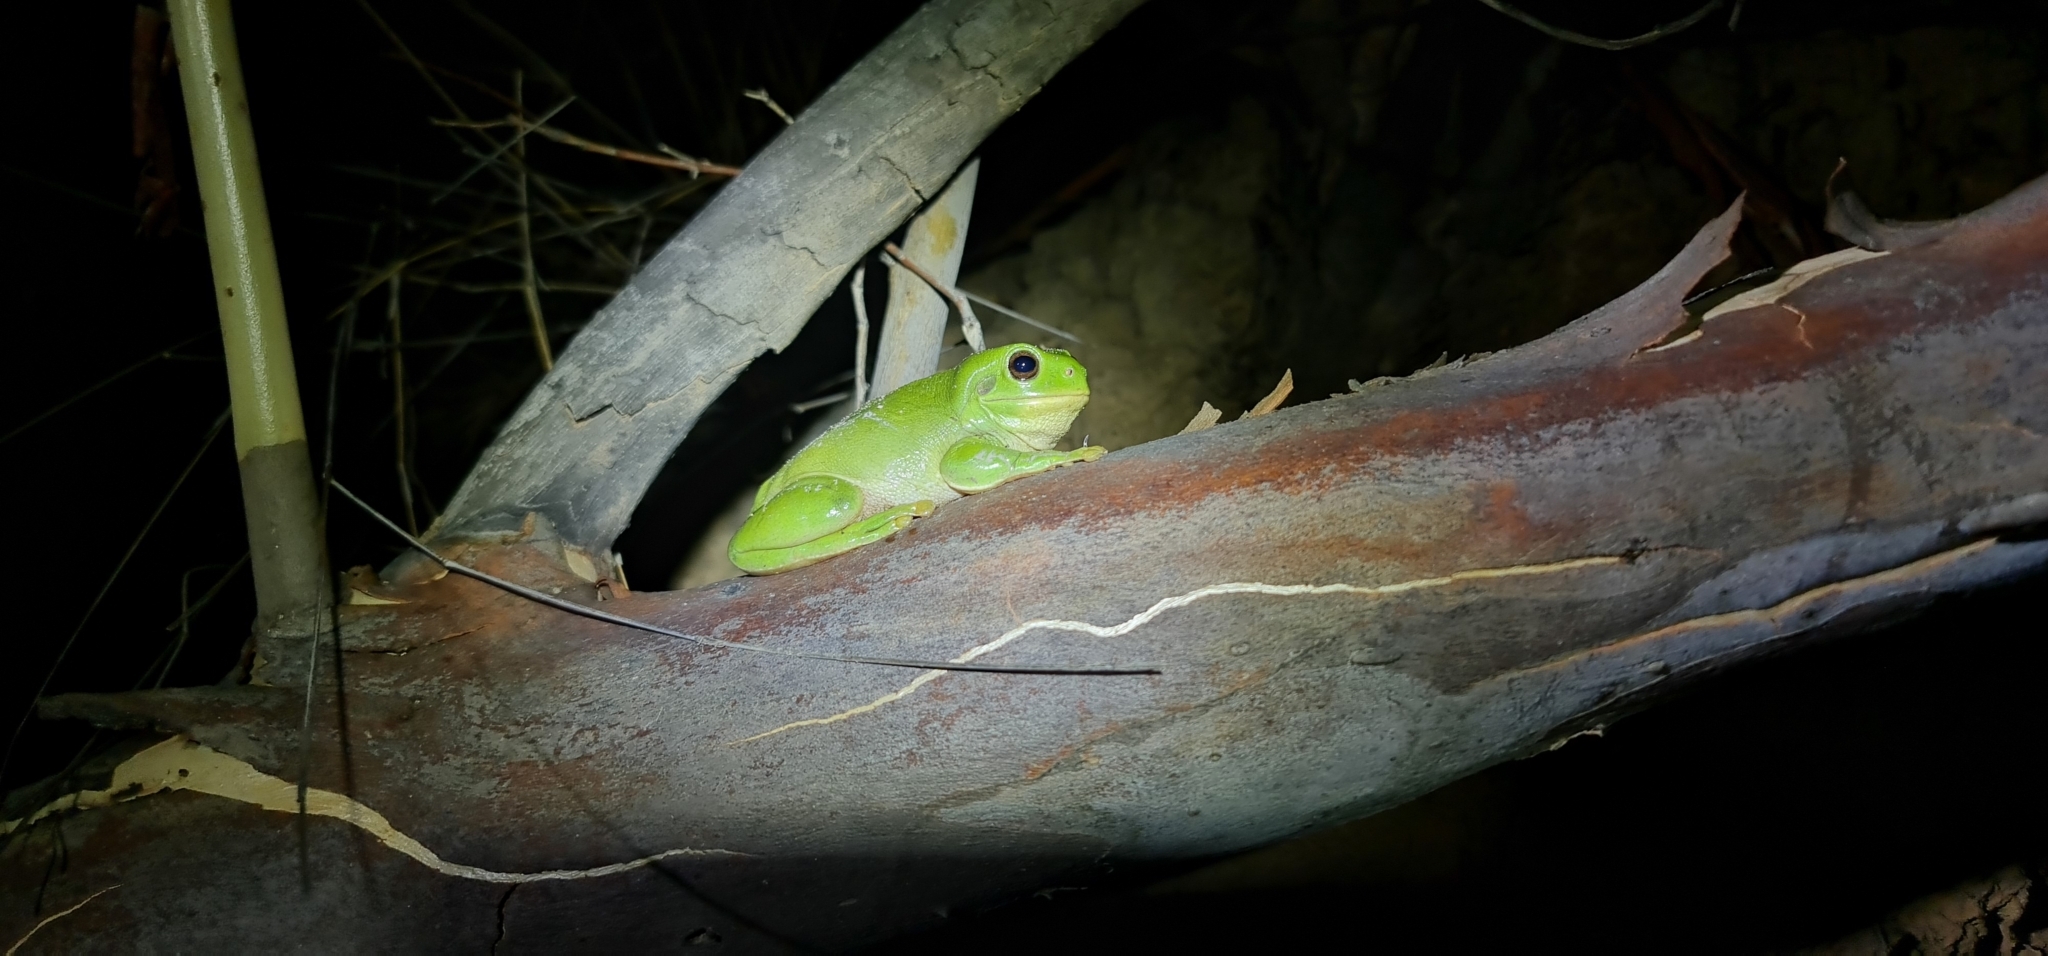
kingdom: Animalia
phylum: Chordata
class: Amphibia
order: Anura
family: Pelodryadidae
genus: Ranoidea
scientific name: Ranoidea caerulea
